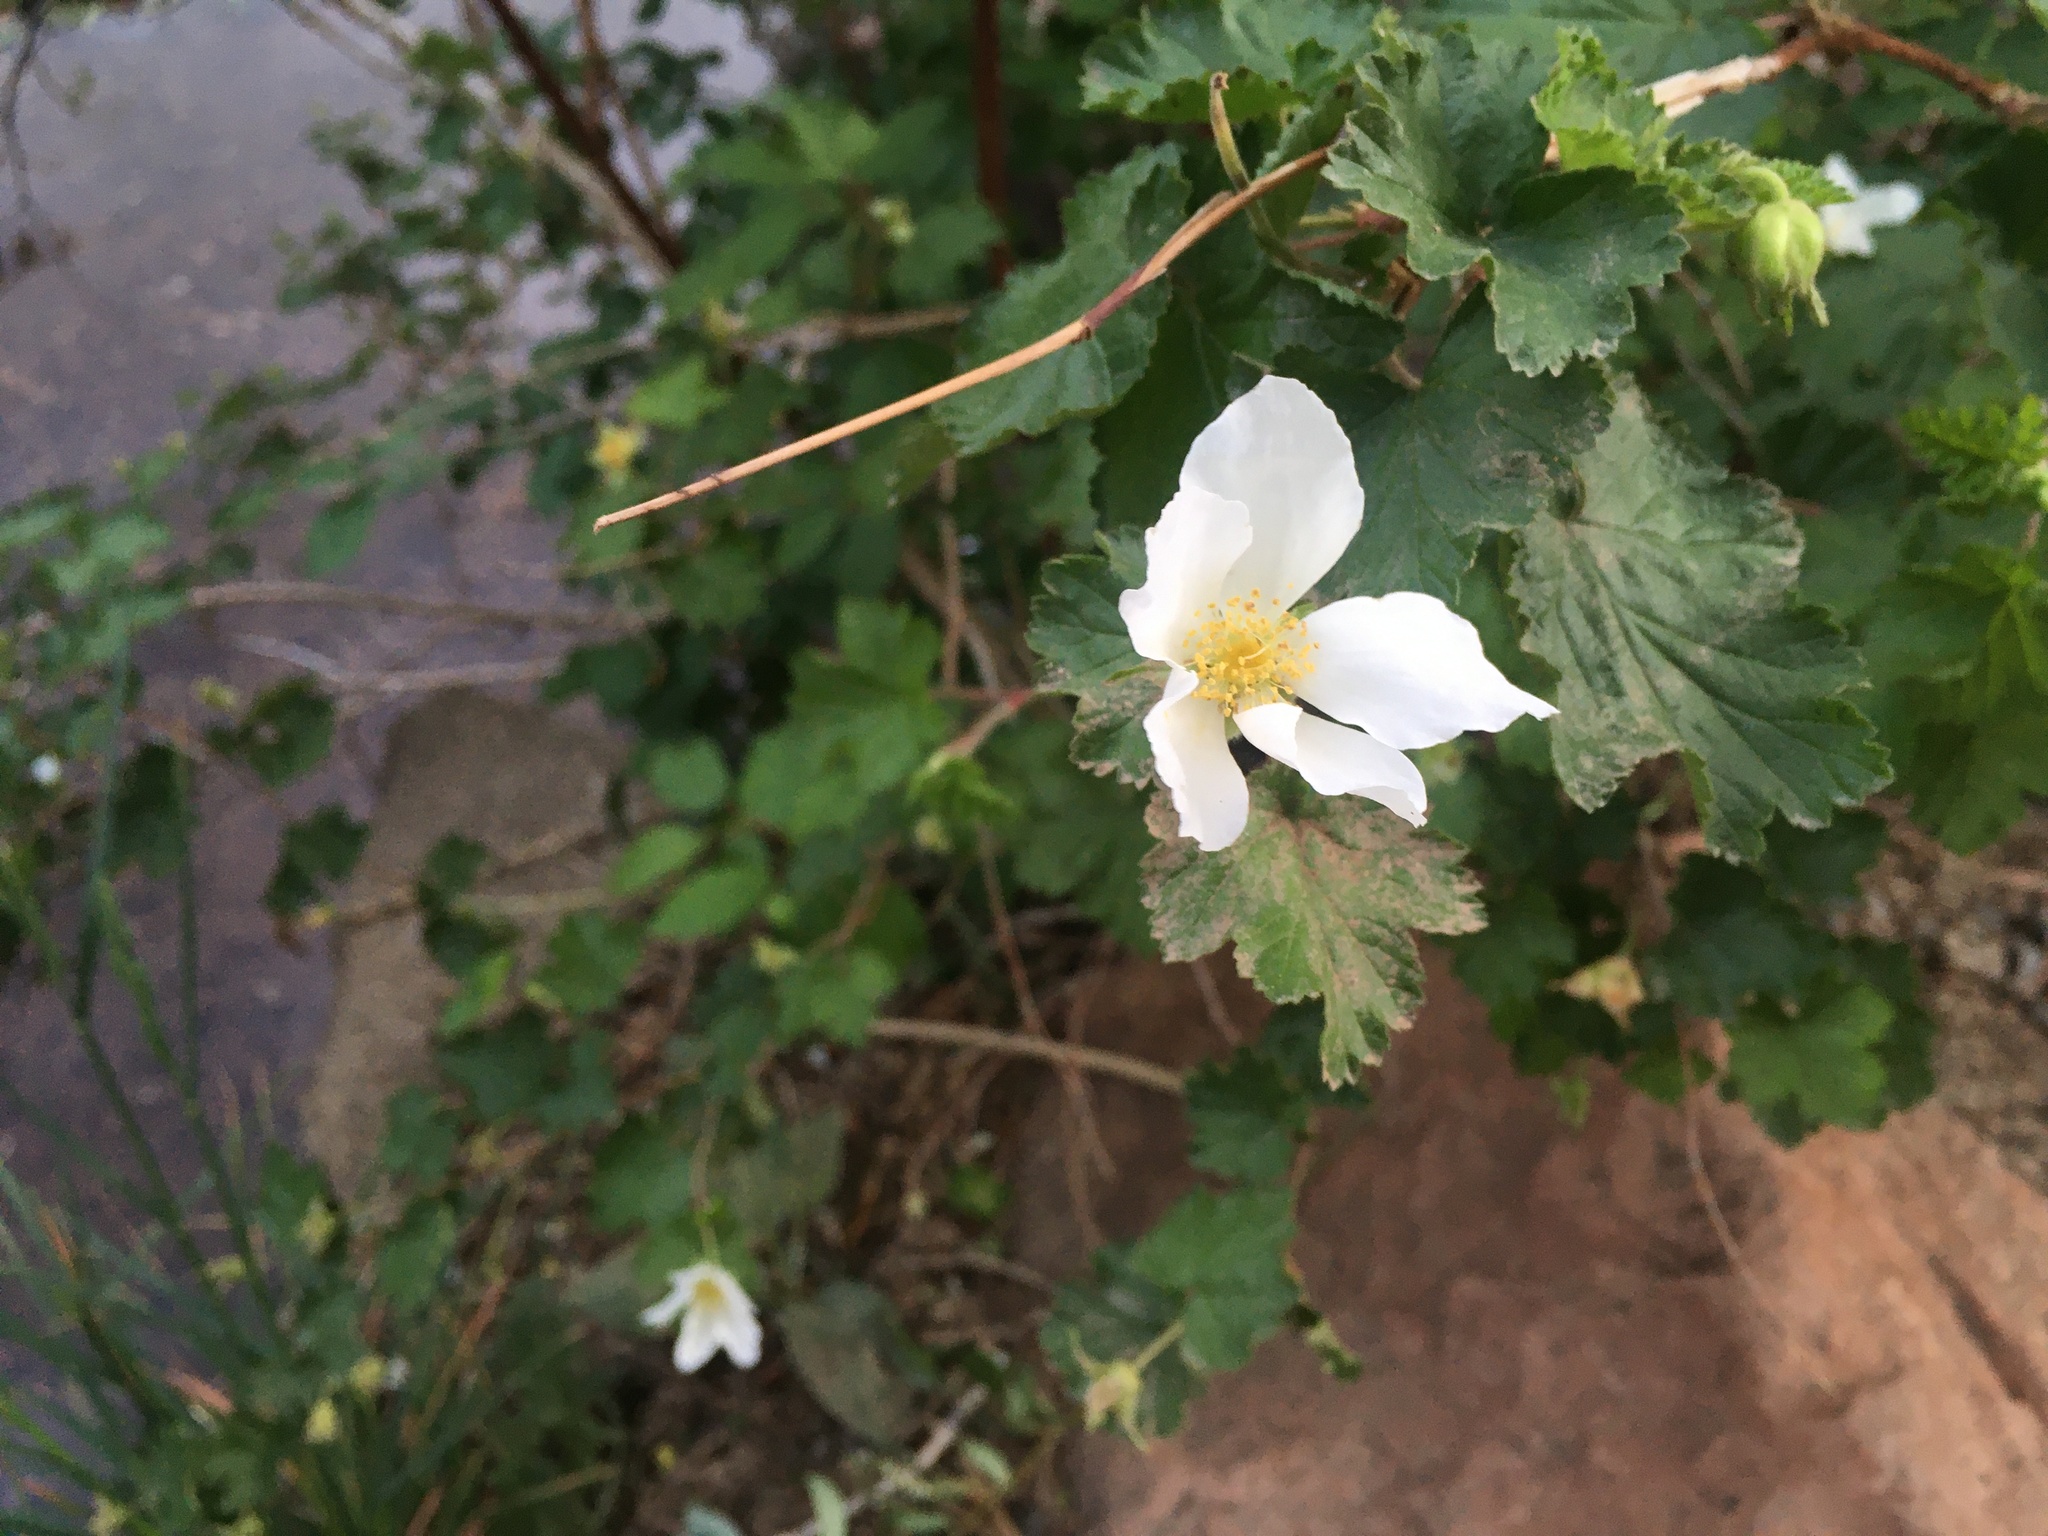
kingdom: Plantae
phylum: Tracheophyta
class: Magnoliopsida
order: Rosales
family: Rosaceae
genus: Rubus
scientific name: Rubus deliciosus
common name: Rocky mountain raspberry
